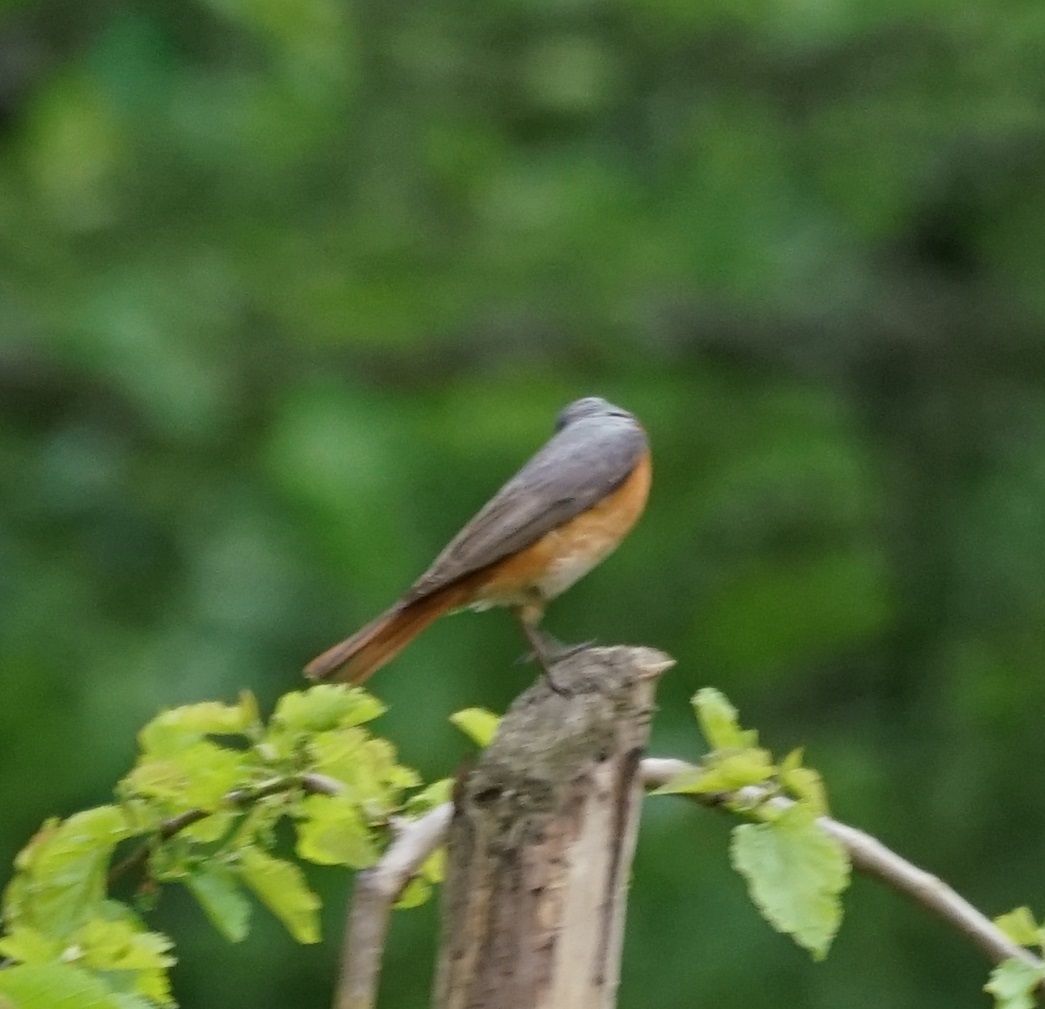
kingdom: Animalia
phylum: Chordata
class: Aves
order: Passeriformes
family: Muscicapidae
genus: Phoenicurus
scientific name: Phoenicurus phoenicurus
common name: Common redstart
